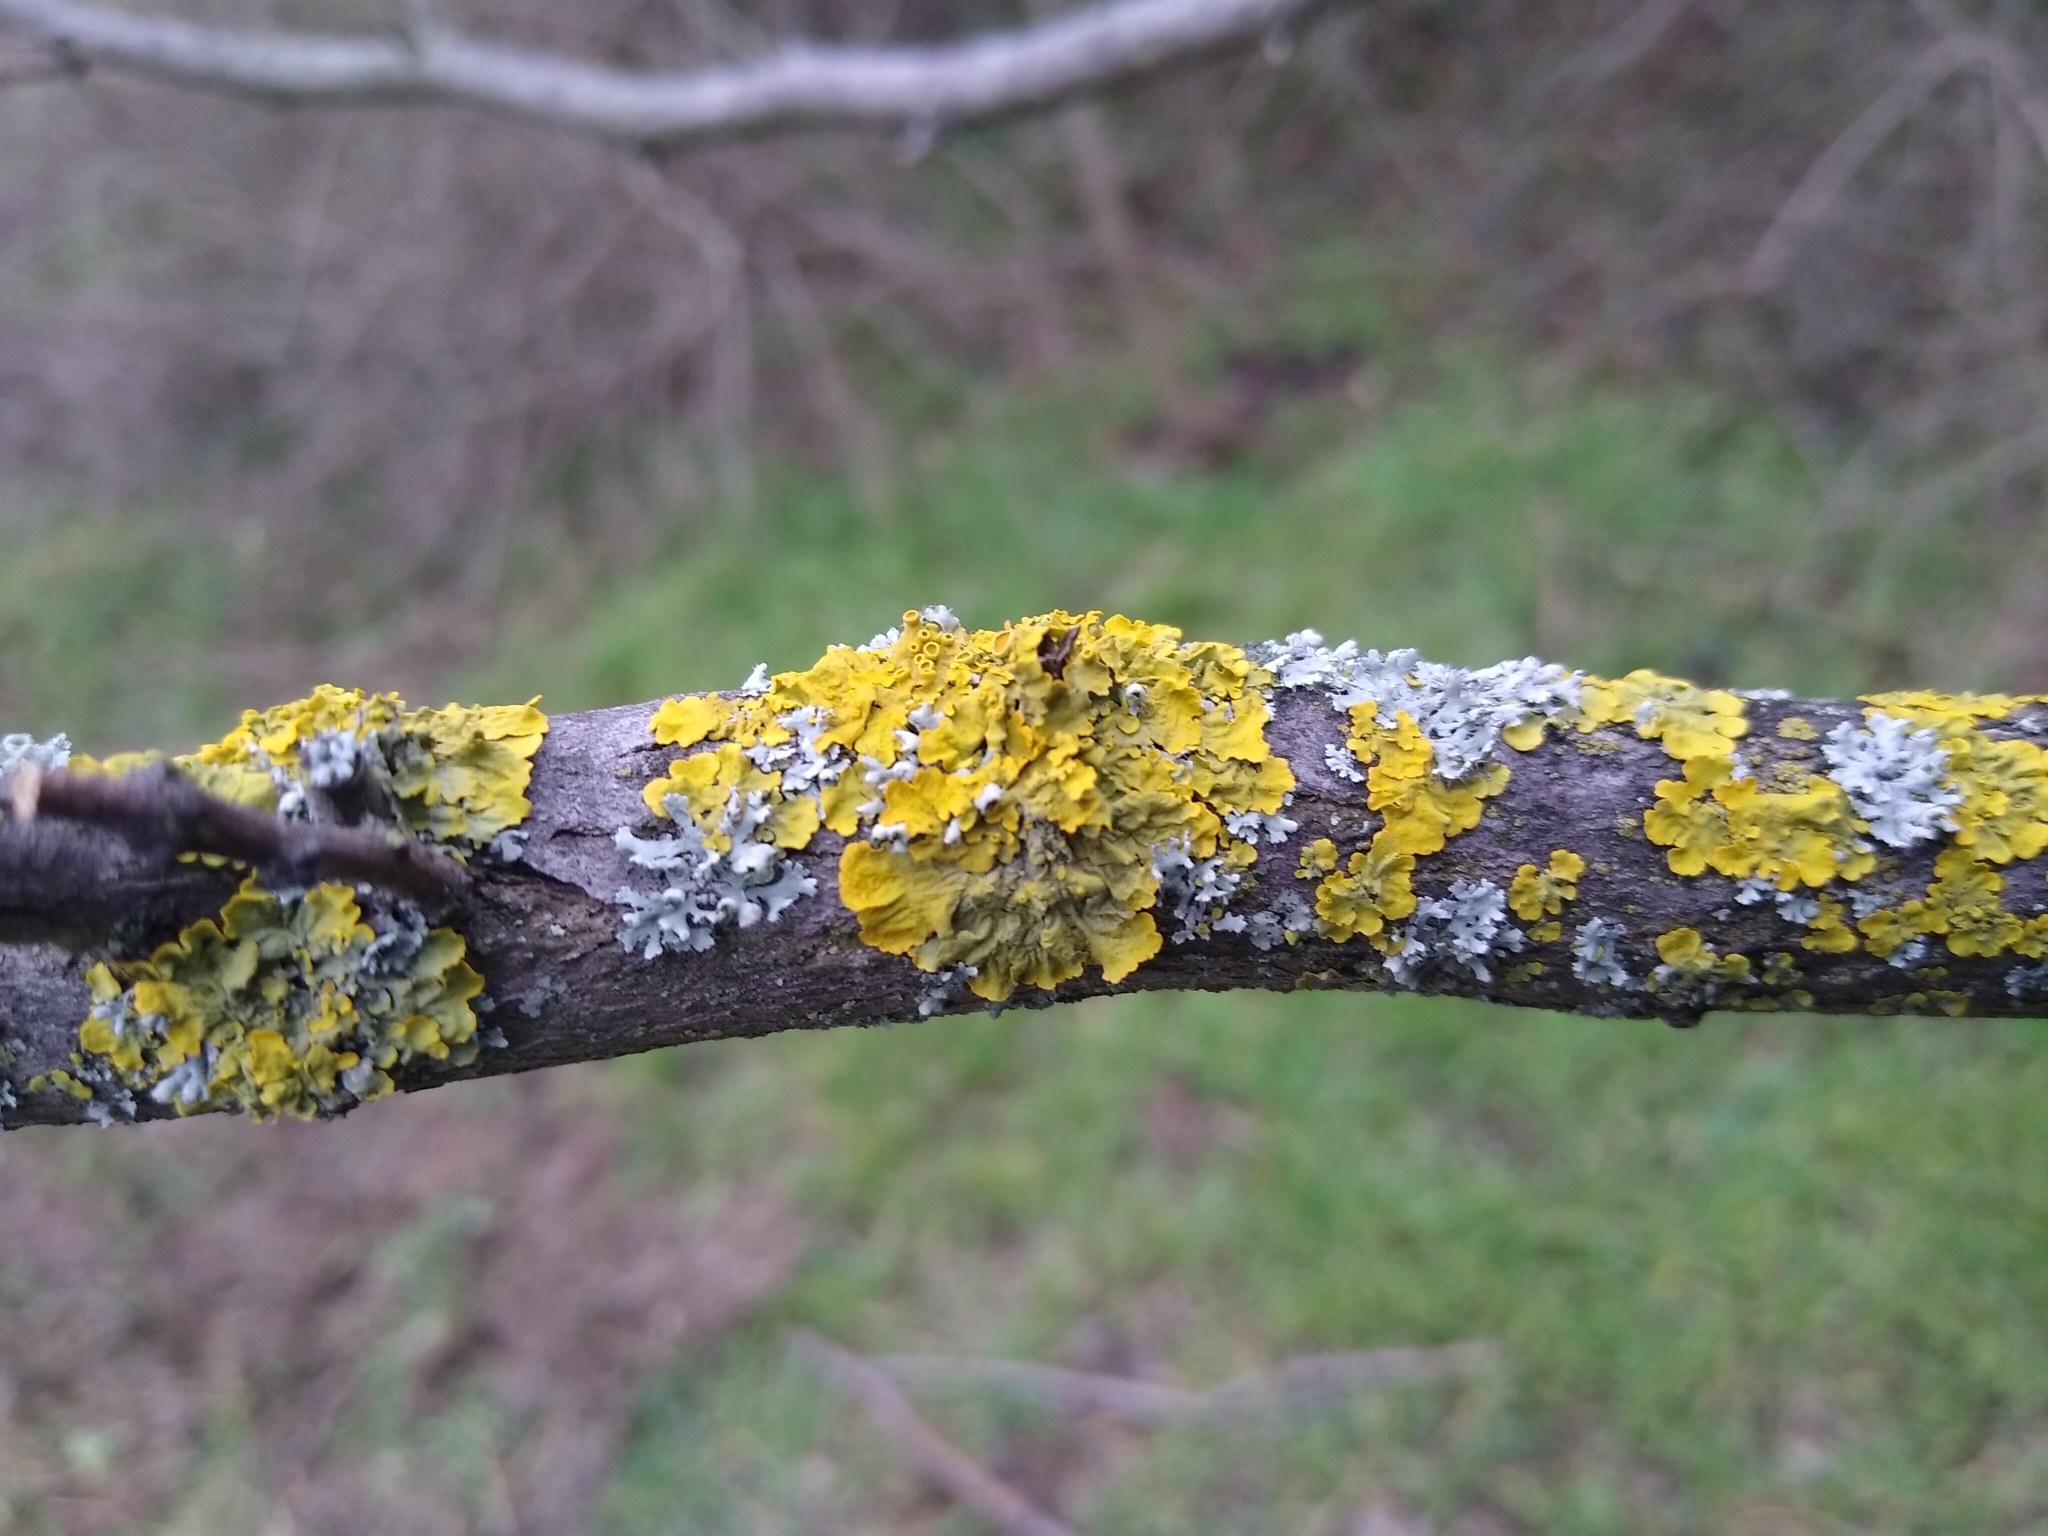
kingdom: Fungi
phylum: Ascomycota
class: Lecanoromycetes
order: Teloschistales
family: Teloschistaceae
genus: Xanthoria
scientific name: Xanthoria parietina
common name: Common orange lichen
